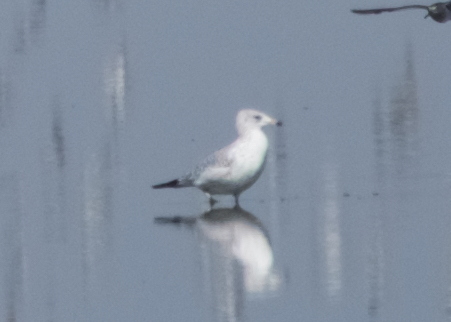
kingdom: Animalia
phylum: Chordata
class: Aves
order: Charadriiformes
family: Laridae
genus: Larus
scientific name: Larus delawarensis
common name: Ring-billed gull
